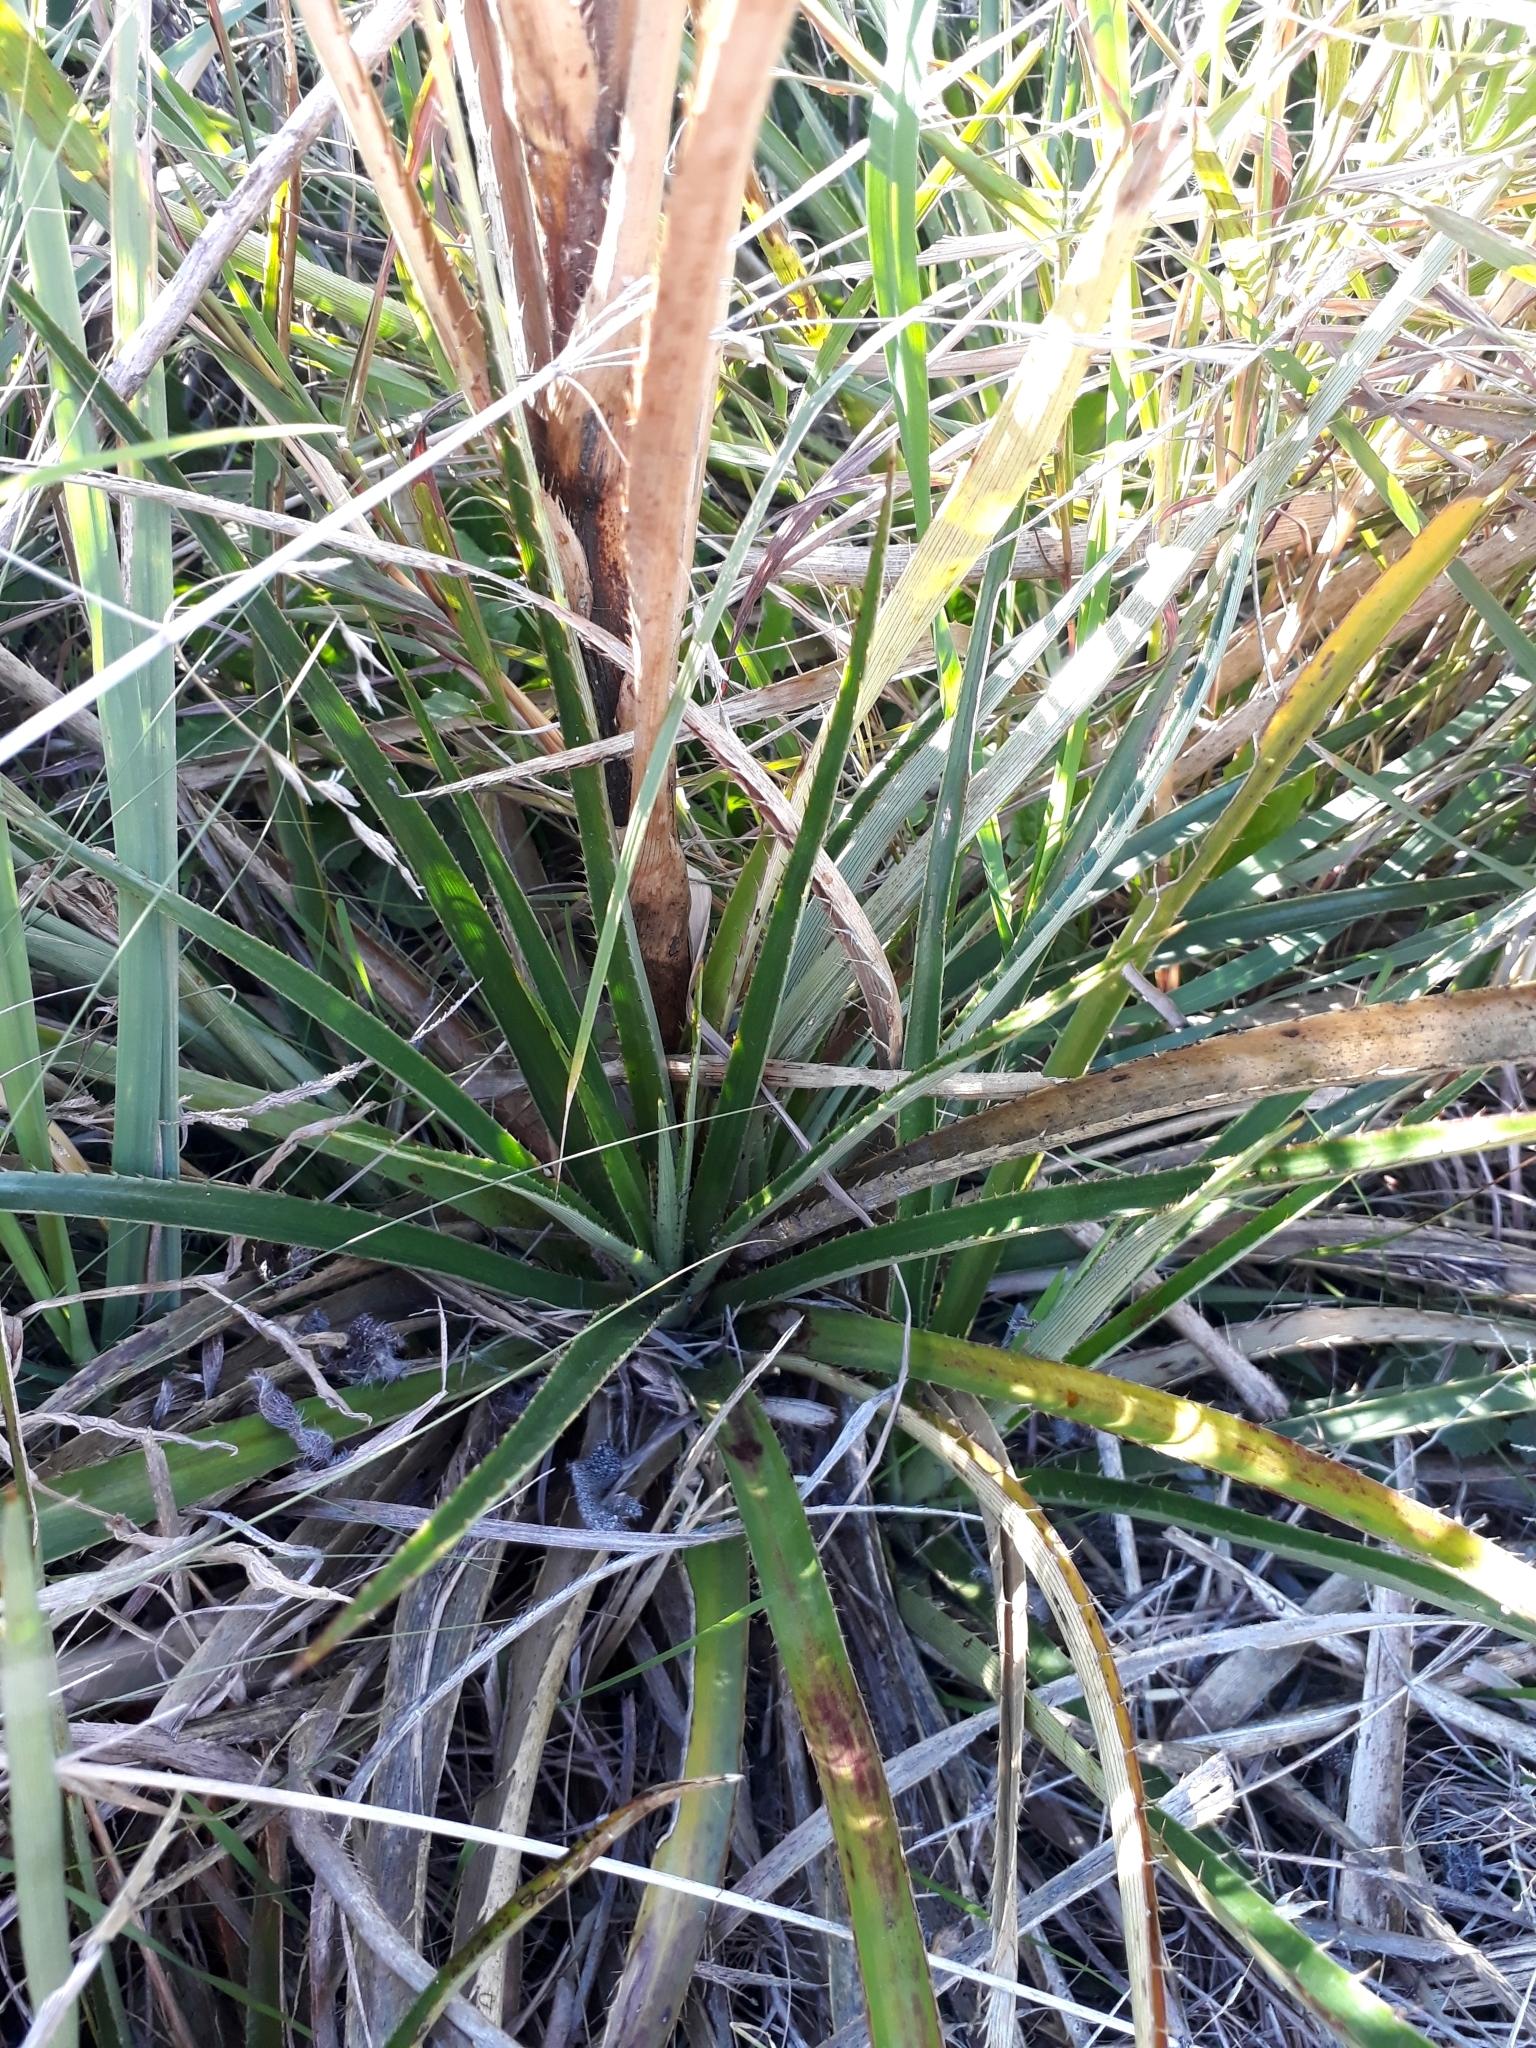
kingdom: Plantae
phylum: Tracheophyta
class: Magnoliopsida
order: Apiales
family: Apiaceae
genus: Eryngium
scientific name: Eryngium humboldtii
